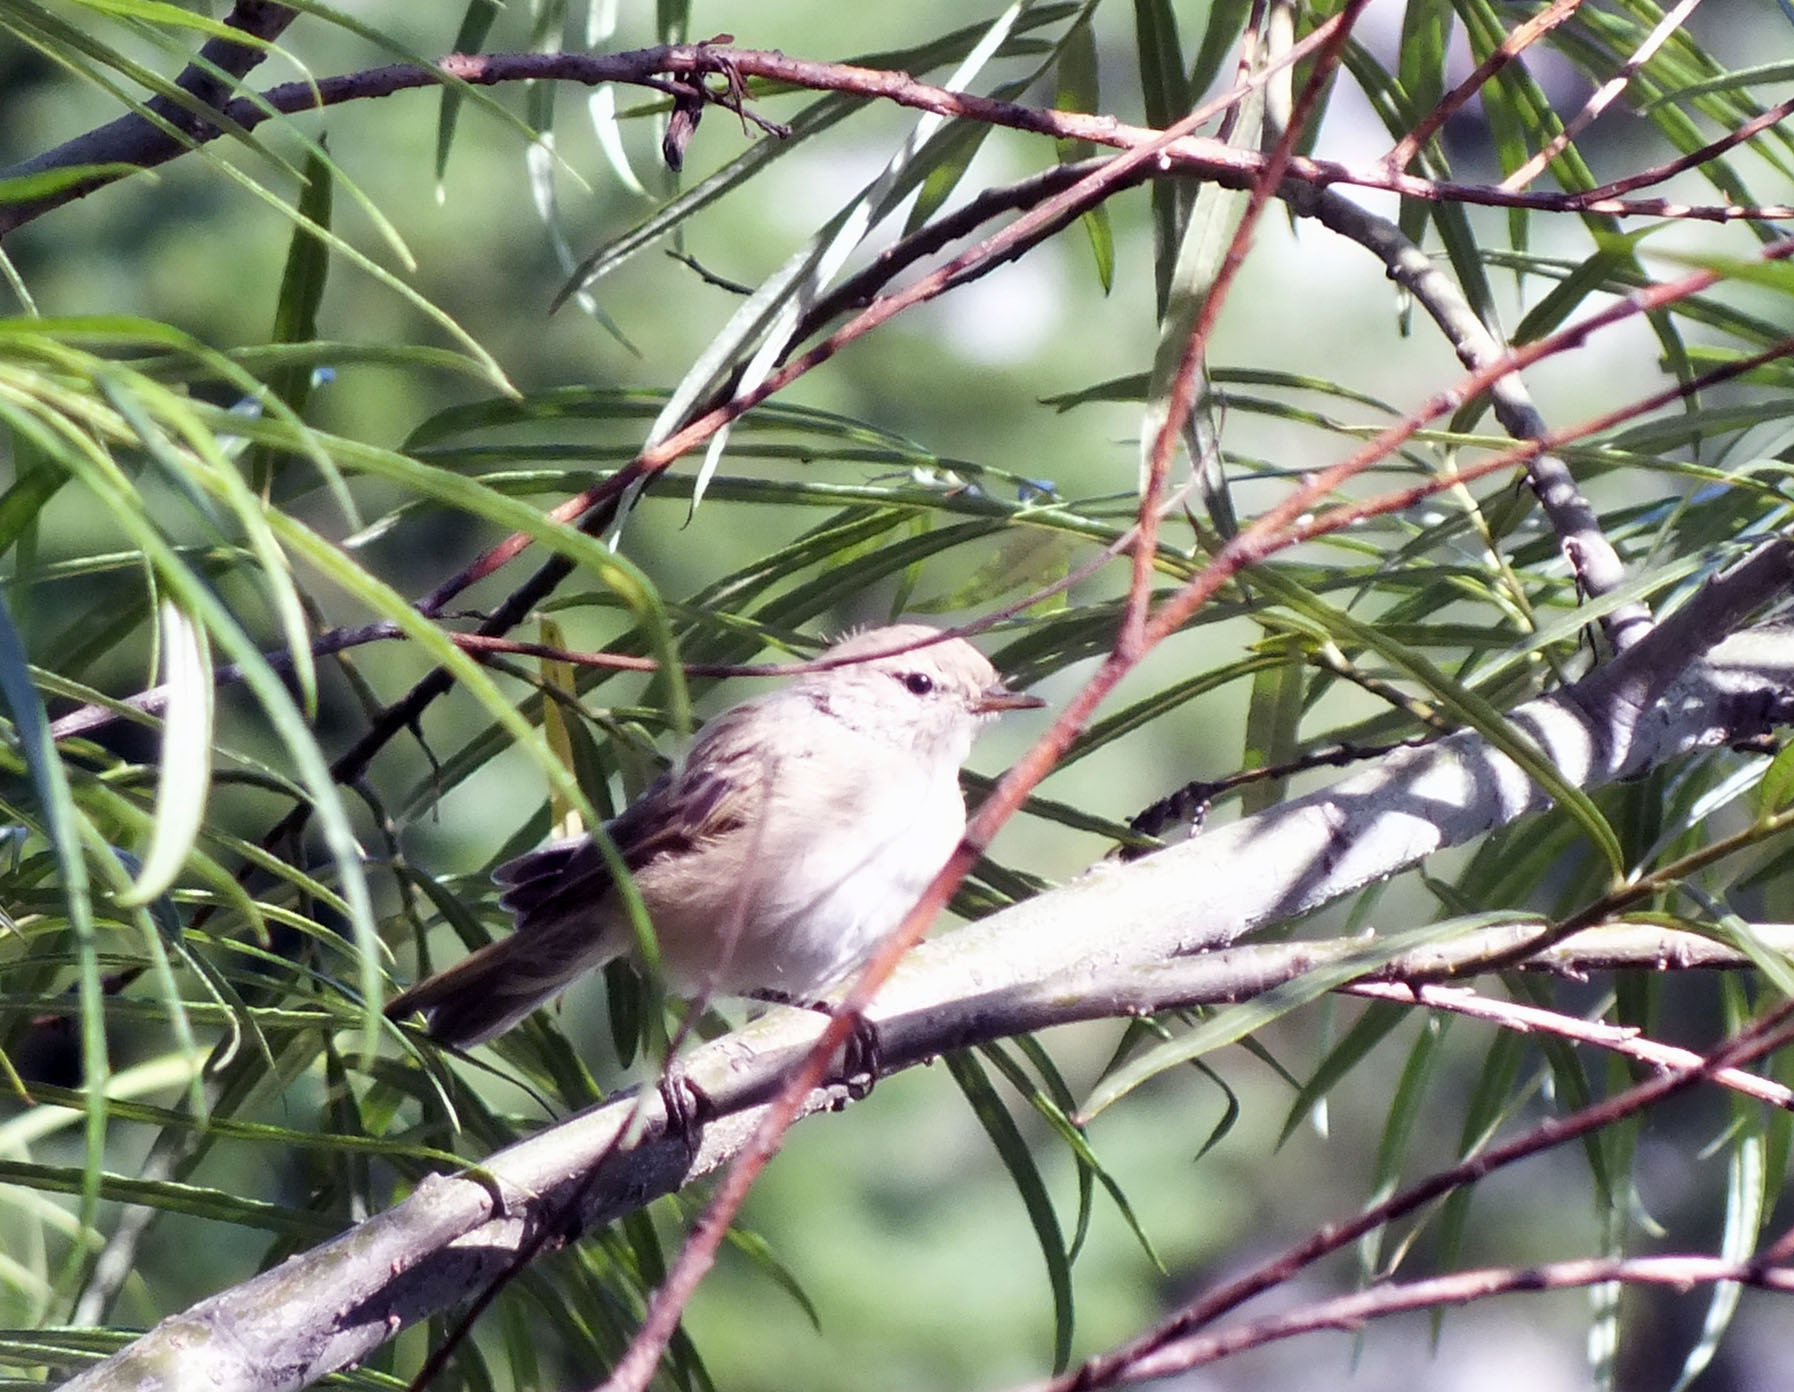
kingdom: Animalia
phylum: Chordata
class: Aves
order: Passeriformes
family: Phylloscopidae
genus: Phylloscopus
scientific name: Phylloscopus collybita
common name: Common chiffchaff
